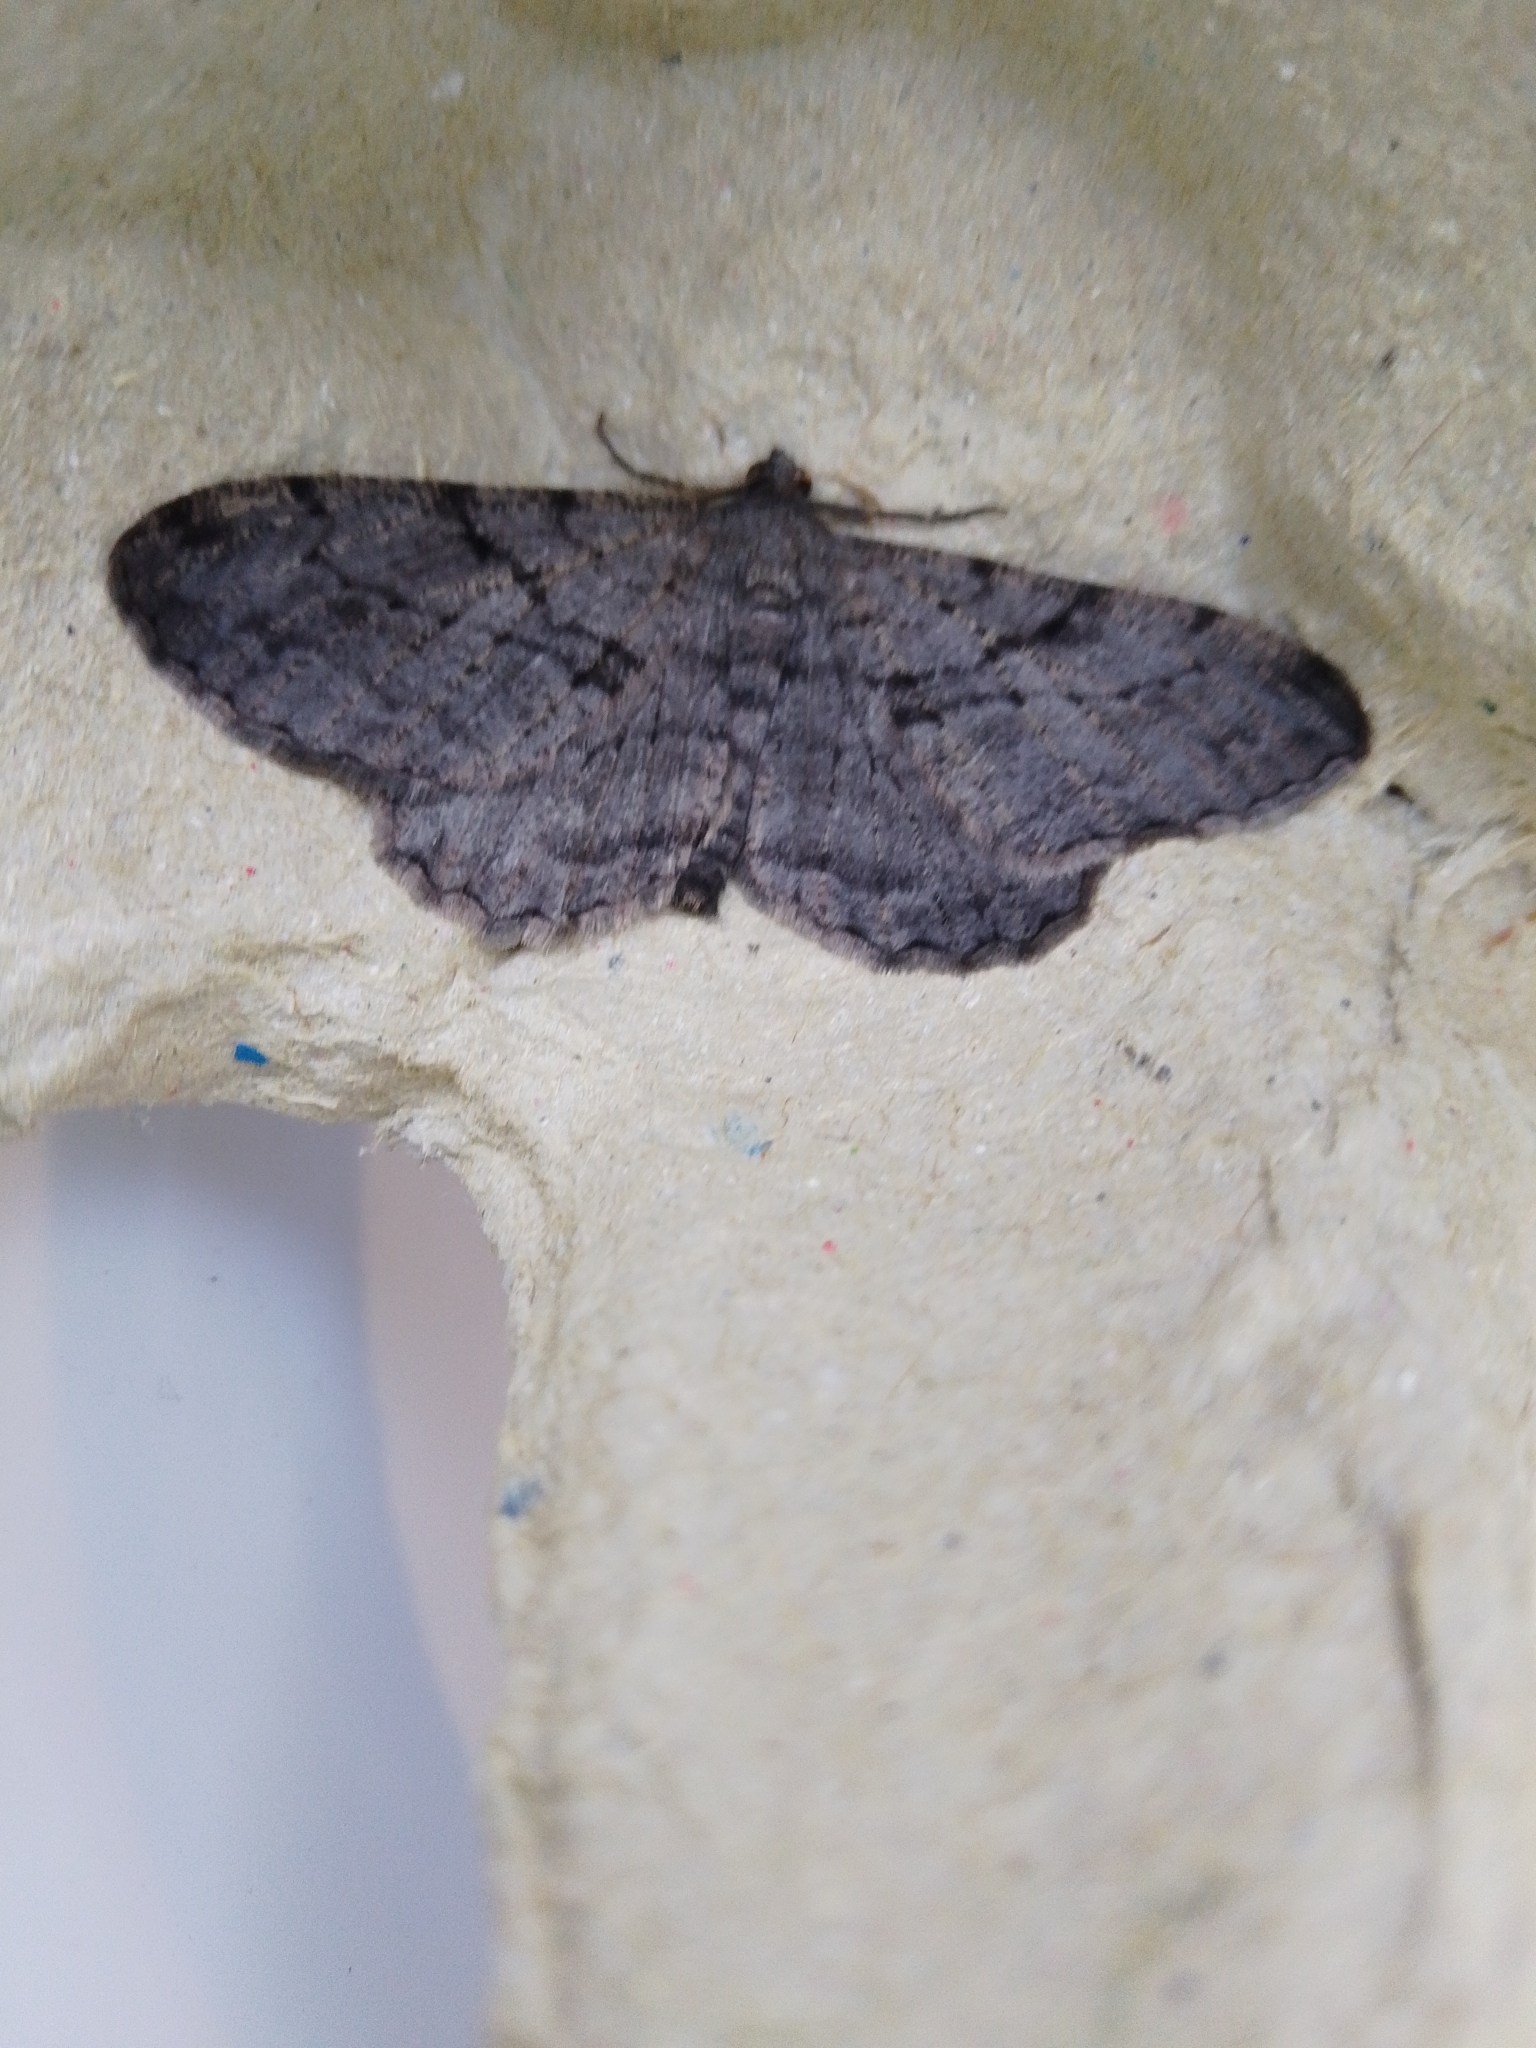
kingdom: Animalia
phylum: Arthropoda
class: Insecta
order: Lepidoptera
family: Geometridae
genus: Peribatodes
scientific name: Peribatodes rhomboidaria
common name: Willow beauty
